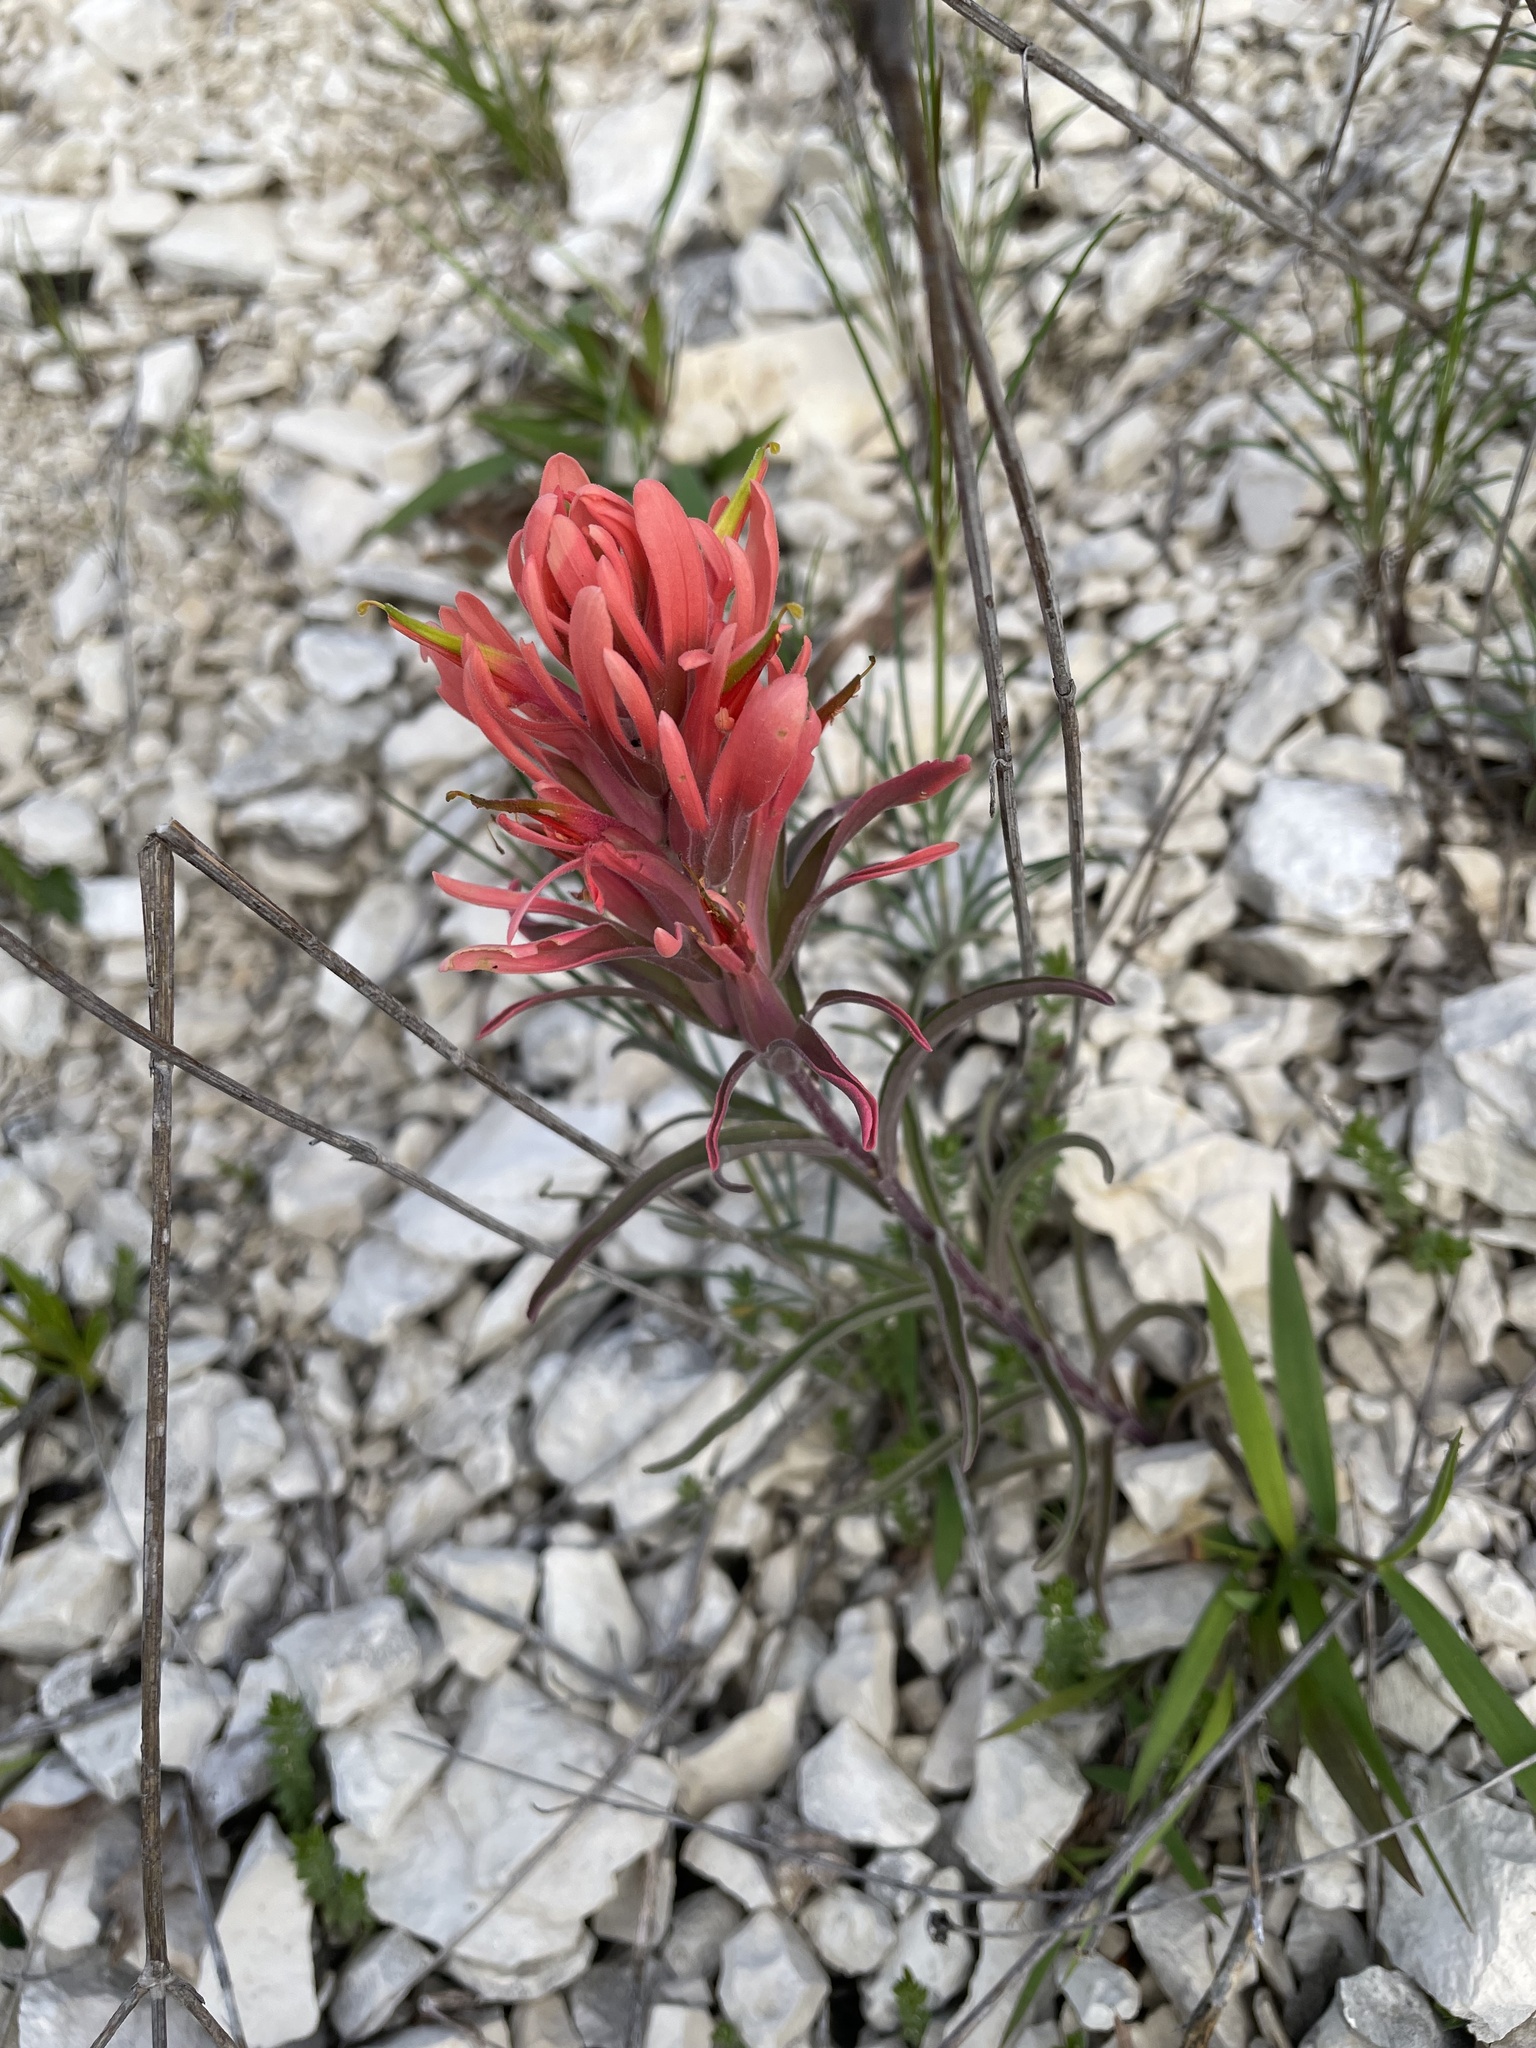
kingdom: Plantae
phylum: Tracheophyta
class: Magnoliopsida
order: Lamiales
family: Orobanchaceae
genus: Castilleja
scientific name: Castilleja lindheimeri
